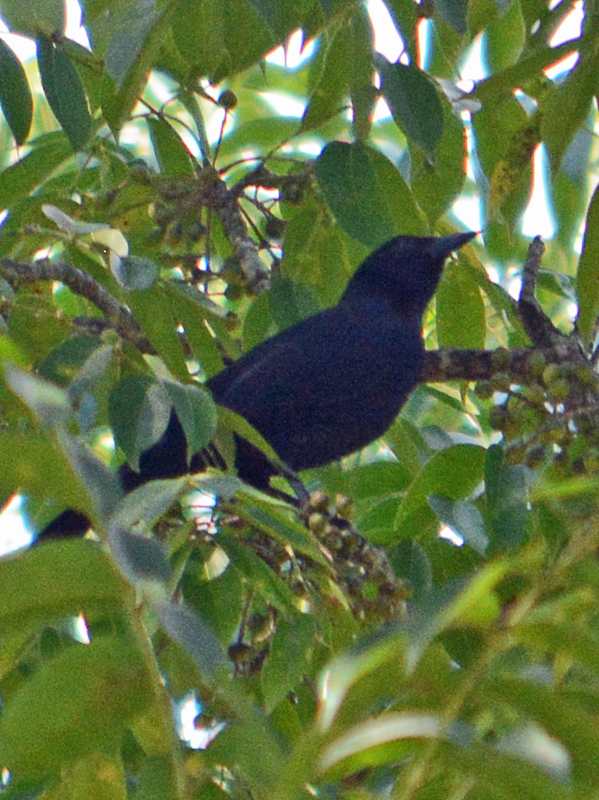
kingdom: Animalia
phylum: Chordata
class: Aves
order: Passeriformes
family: Icteridae
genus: Dives
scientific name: Dives dives
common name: Melodious blackbird
